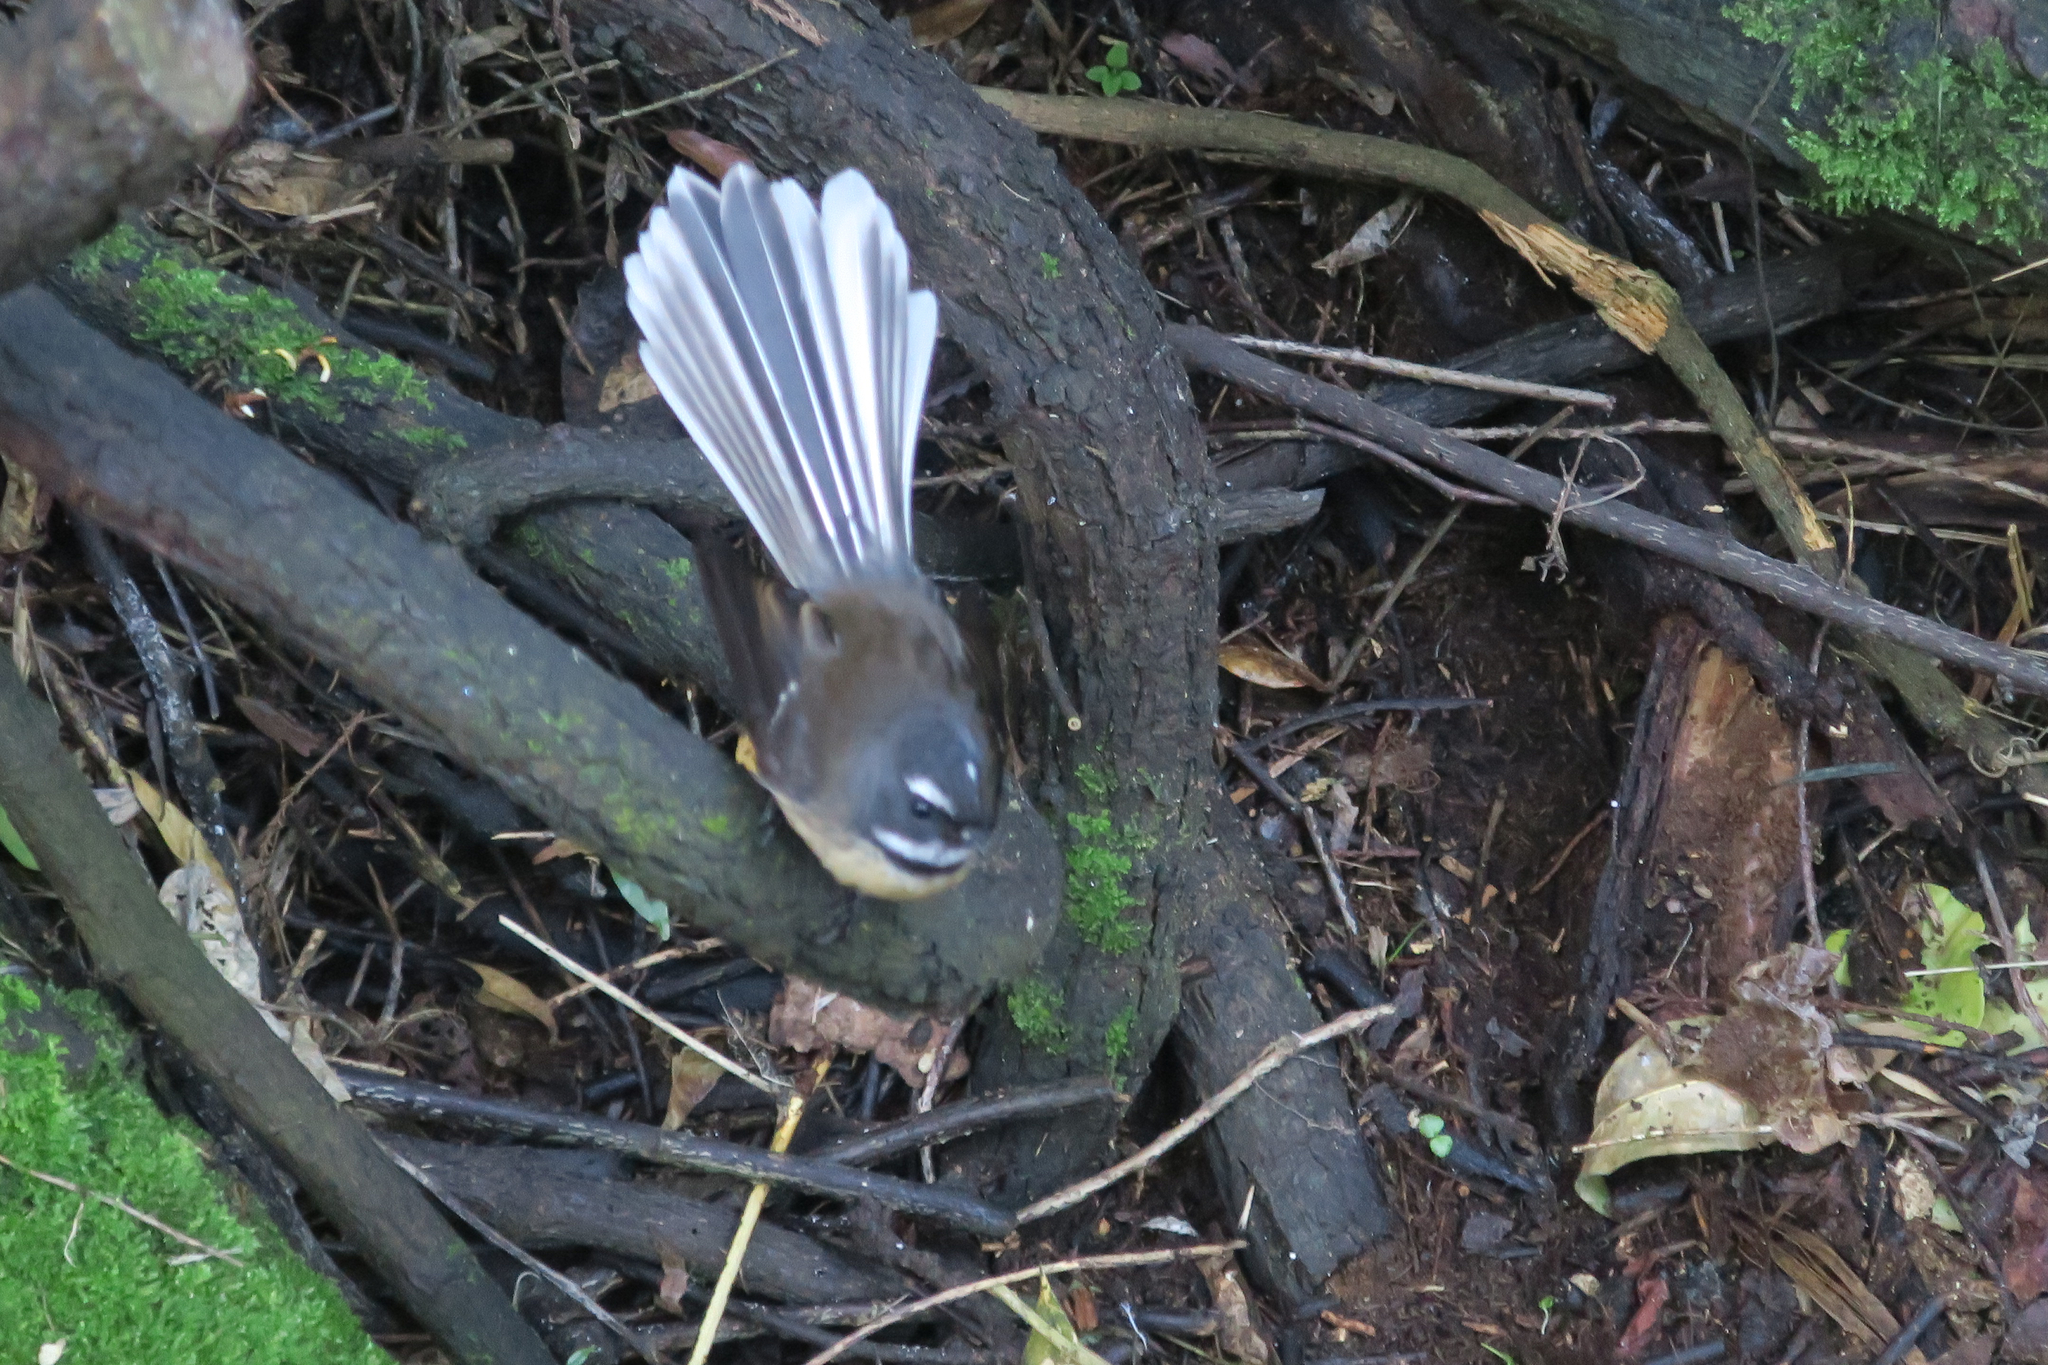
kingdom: Animalia
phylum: Chordata
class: Aves
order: Passeriformes
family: Rhipiduridae
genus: Rhipidura
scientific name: Rhipidura fuliginosa
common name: New zealand fantail
